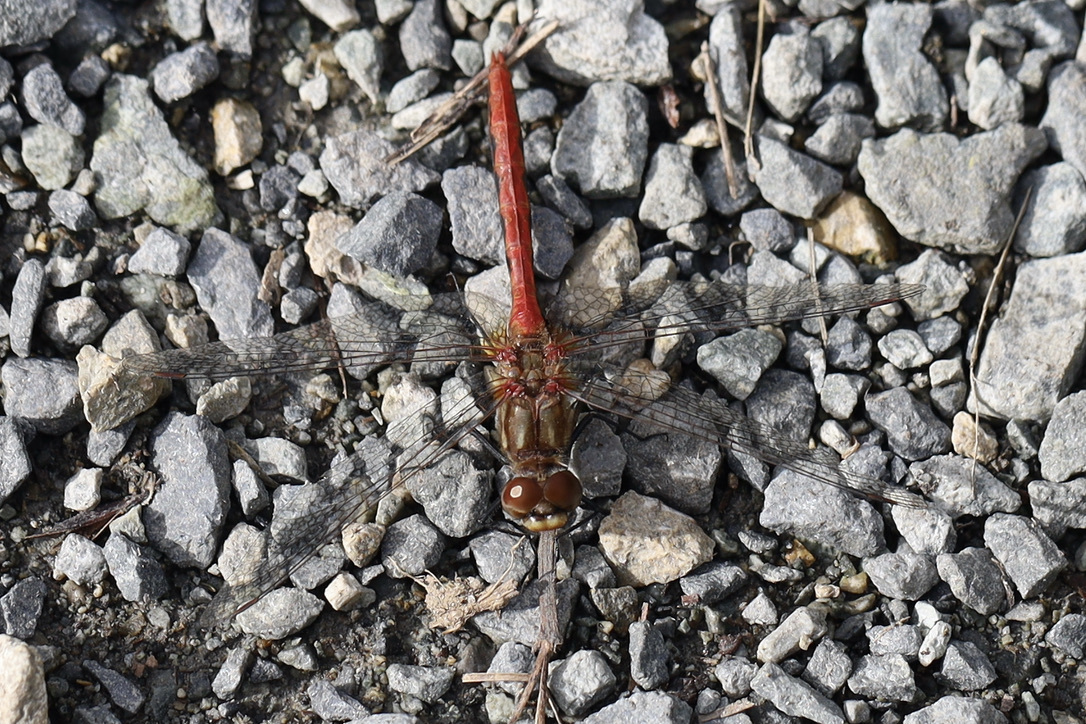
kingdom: Animalia
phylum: Arthropoda
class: Insecta
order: Odonata
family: Libellulidae
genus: Sympetrum
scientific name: Sympetrum pallipes
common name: Striped meadowhawk
